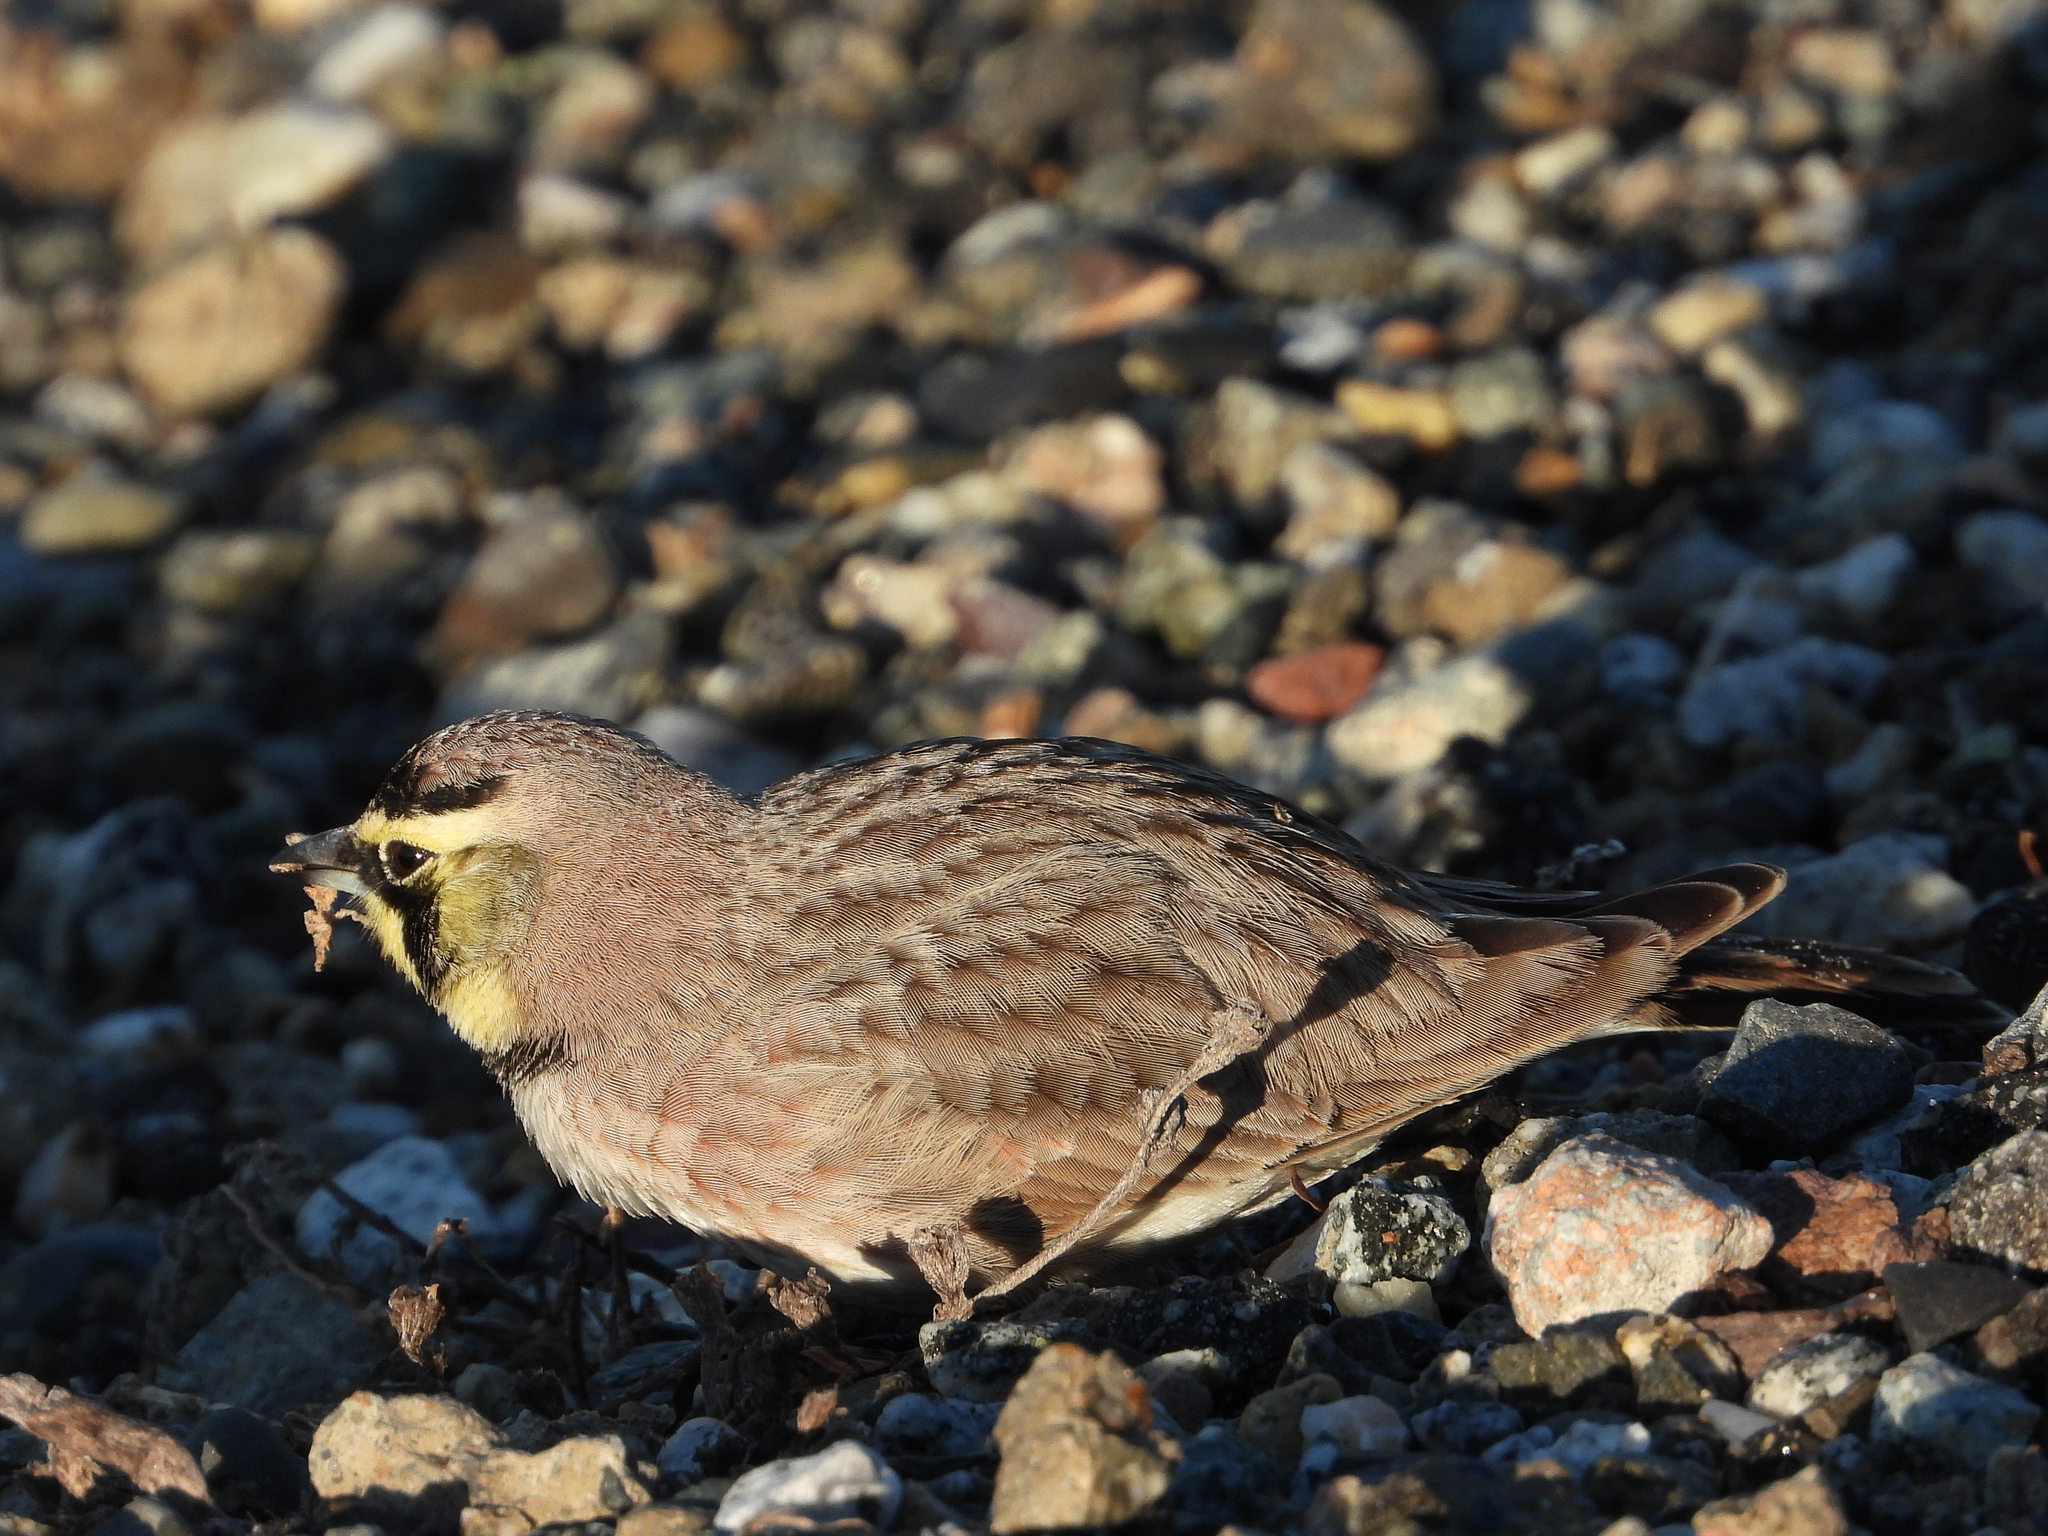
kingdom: Animalia
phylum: Chordata
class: Aves
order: Passeriformes
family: Alaudidae
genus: Eremophila
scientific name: Eremophila alpestris
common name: Horned lark
